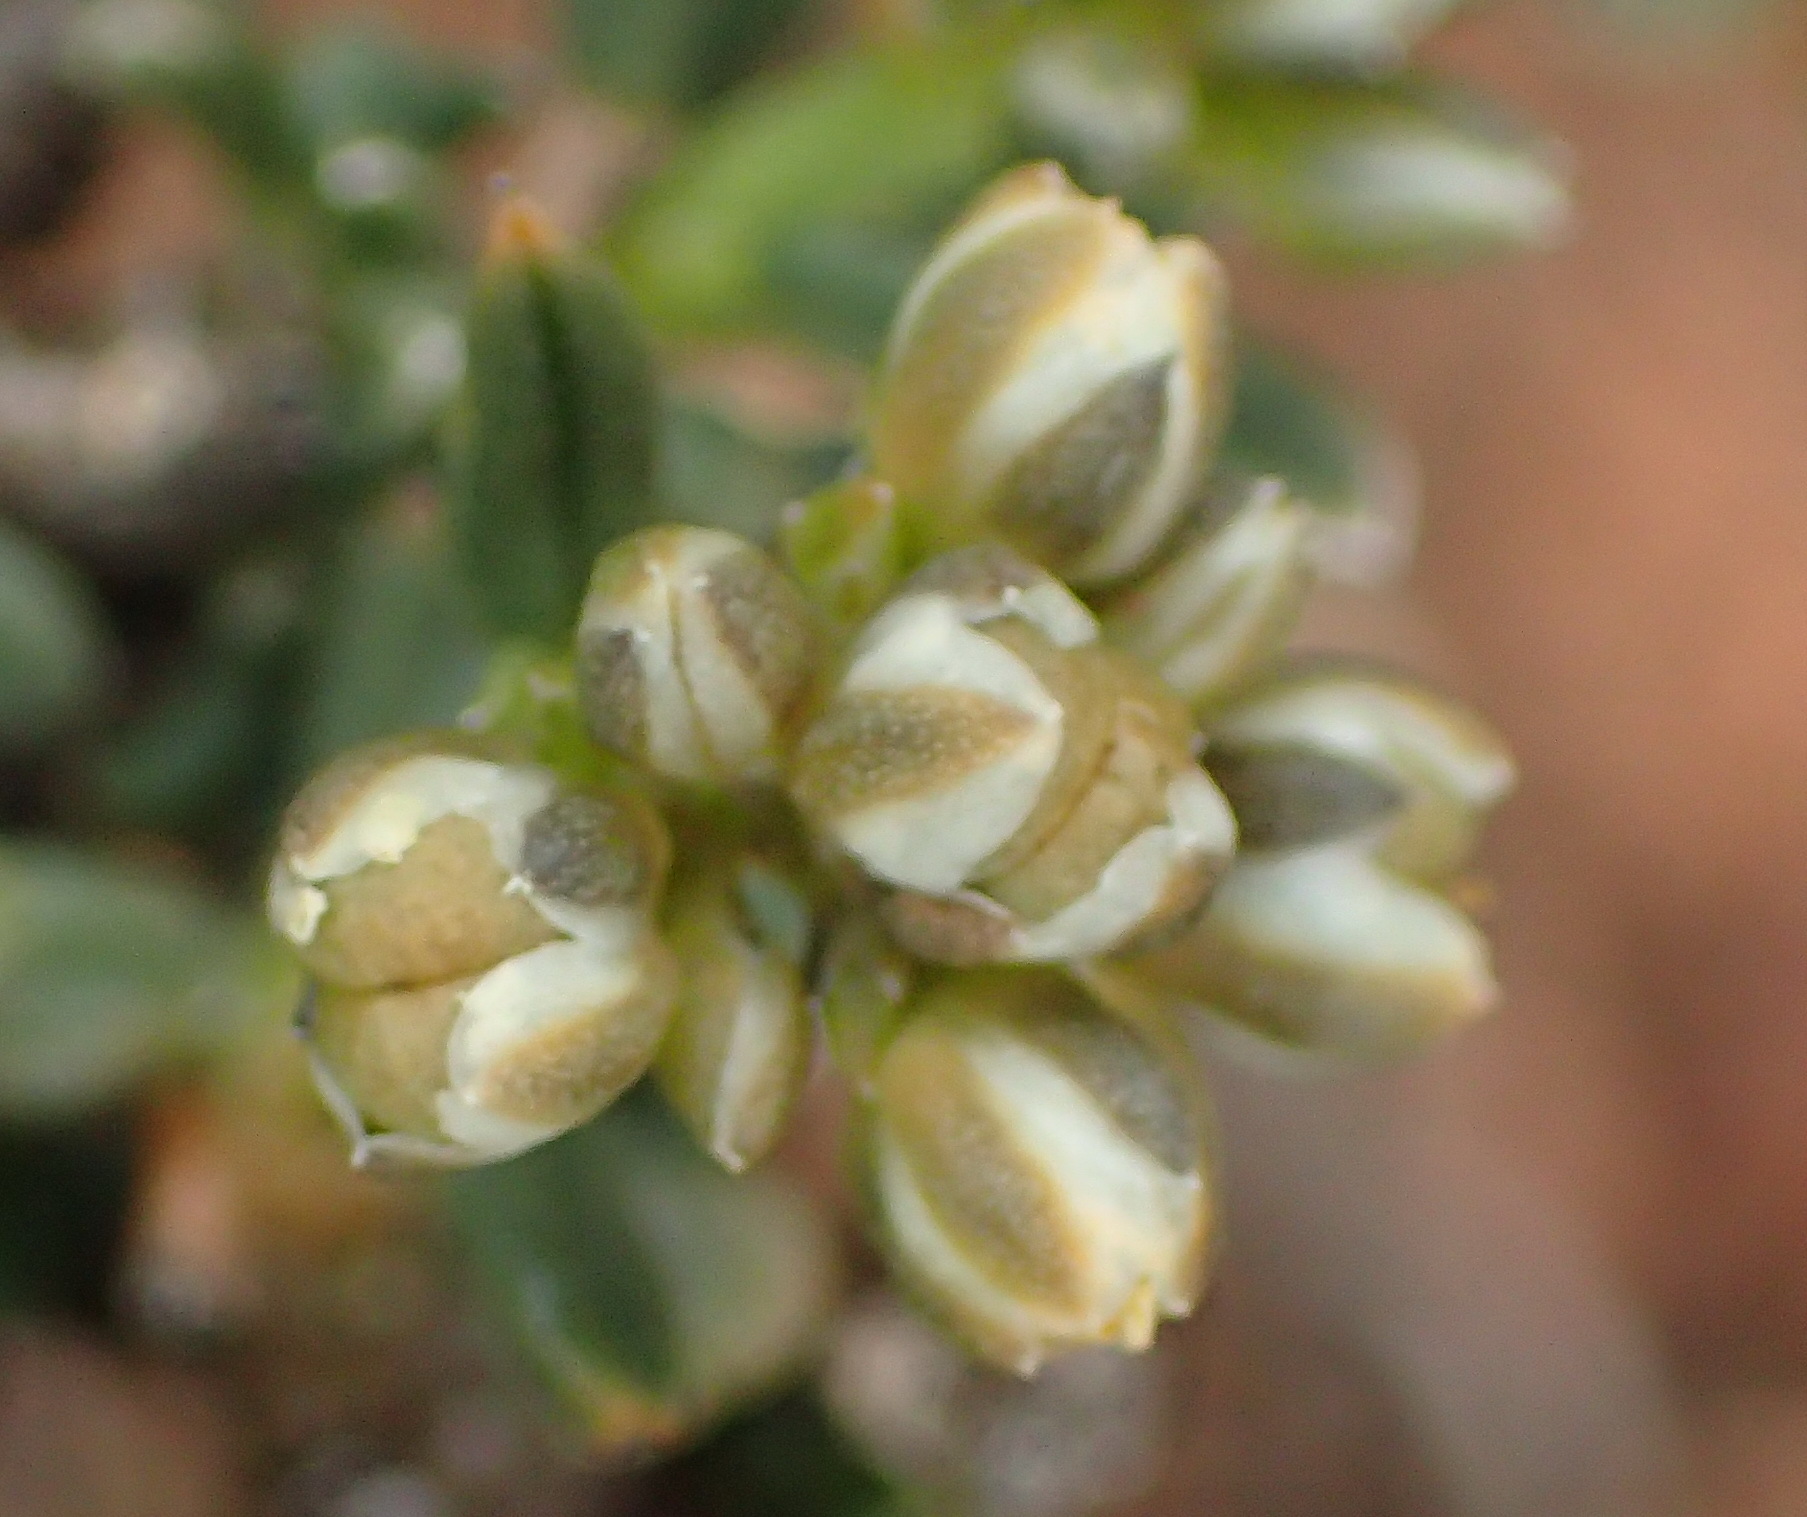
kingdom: Plantae
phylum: Tracheophyta
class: Magnoliopsida
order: Caryophyllales
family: Limeaceae
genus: Limeum
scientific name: Limeum aethiopicum
